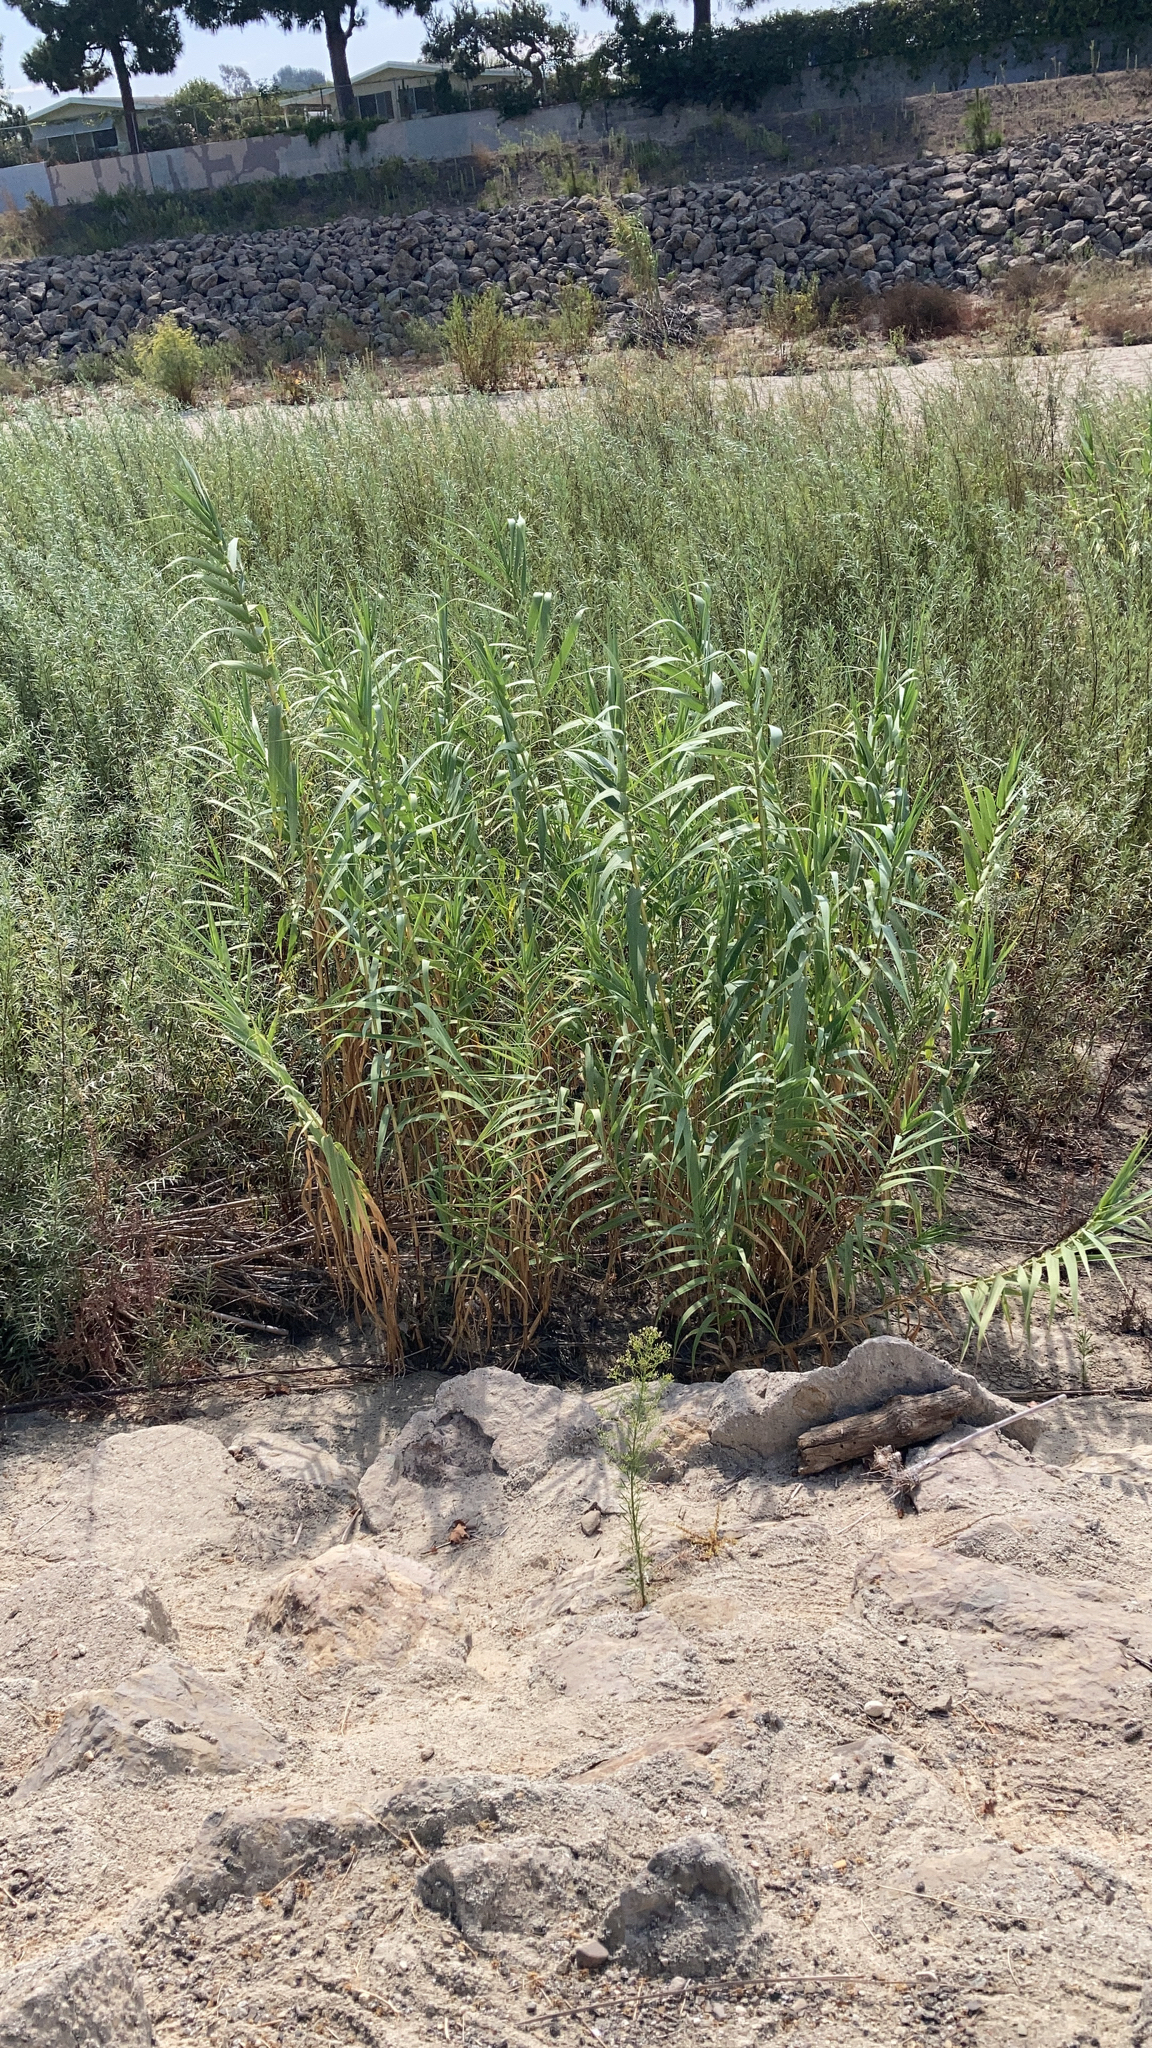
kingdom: Plantae
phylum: Tracheophyta
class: Liliopsida
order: Poales
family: Poaceae
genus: Arundo
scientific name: Arundo donax
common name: Giant reed
